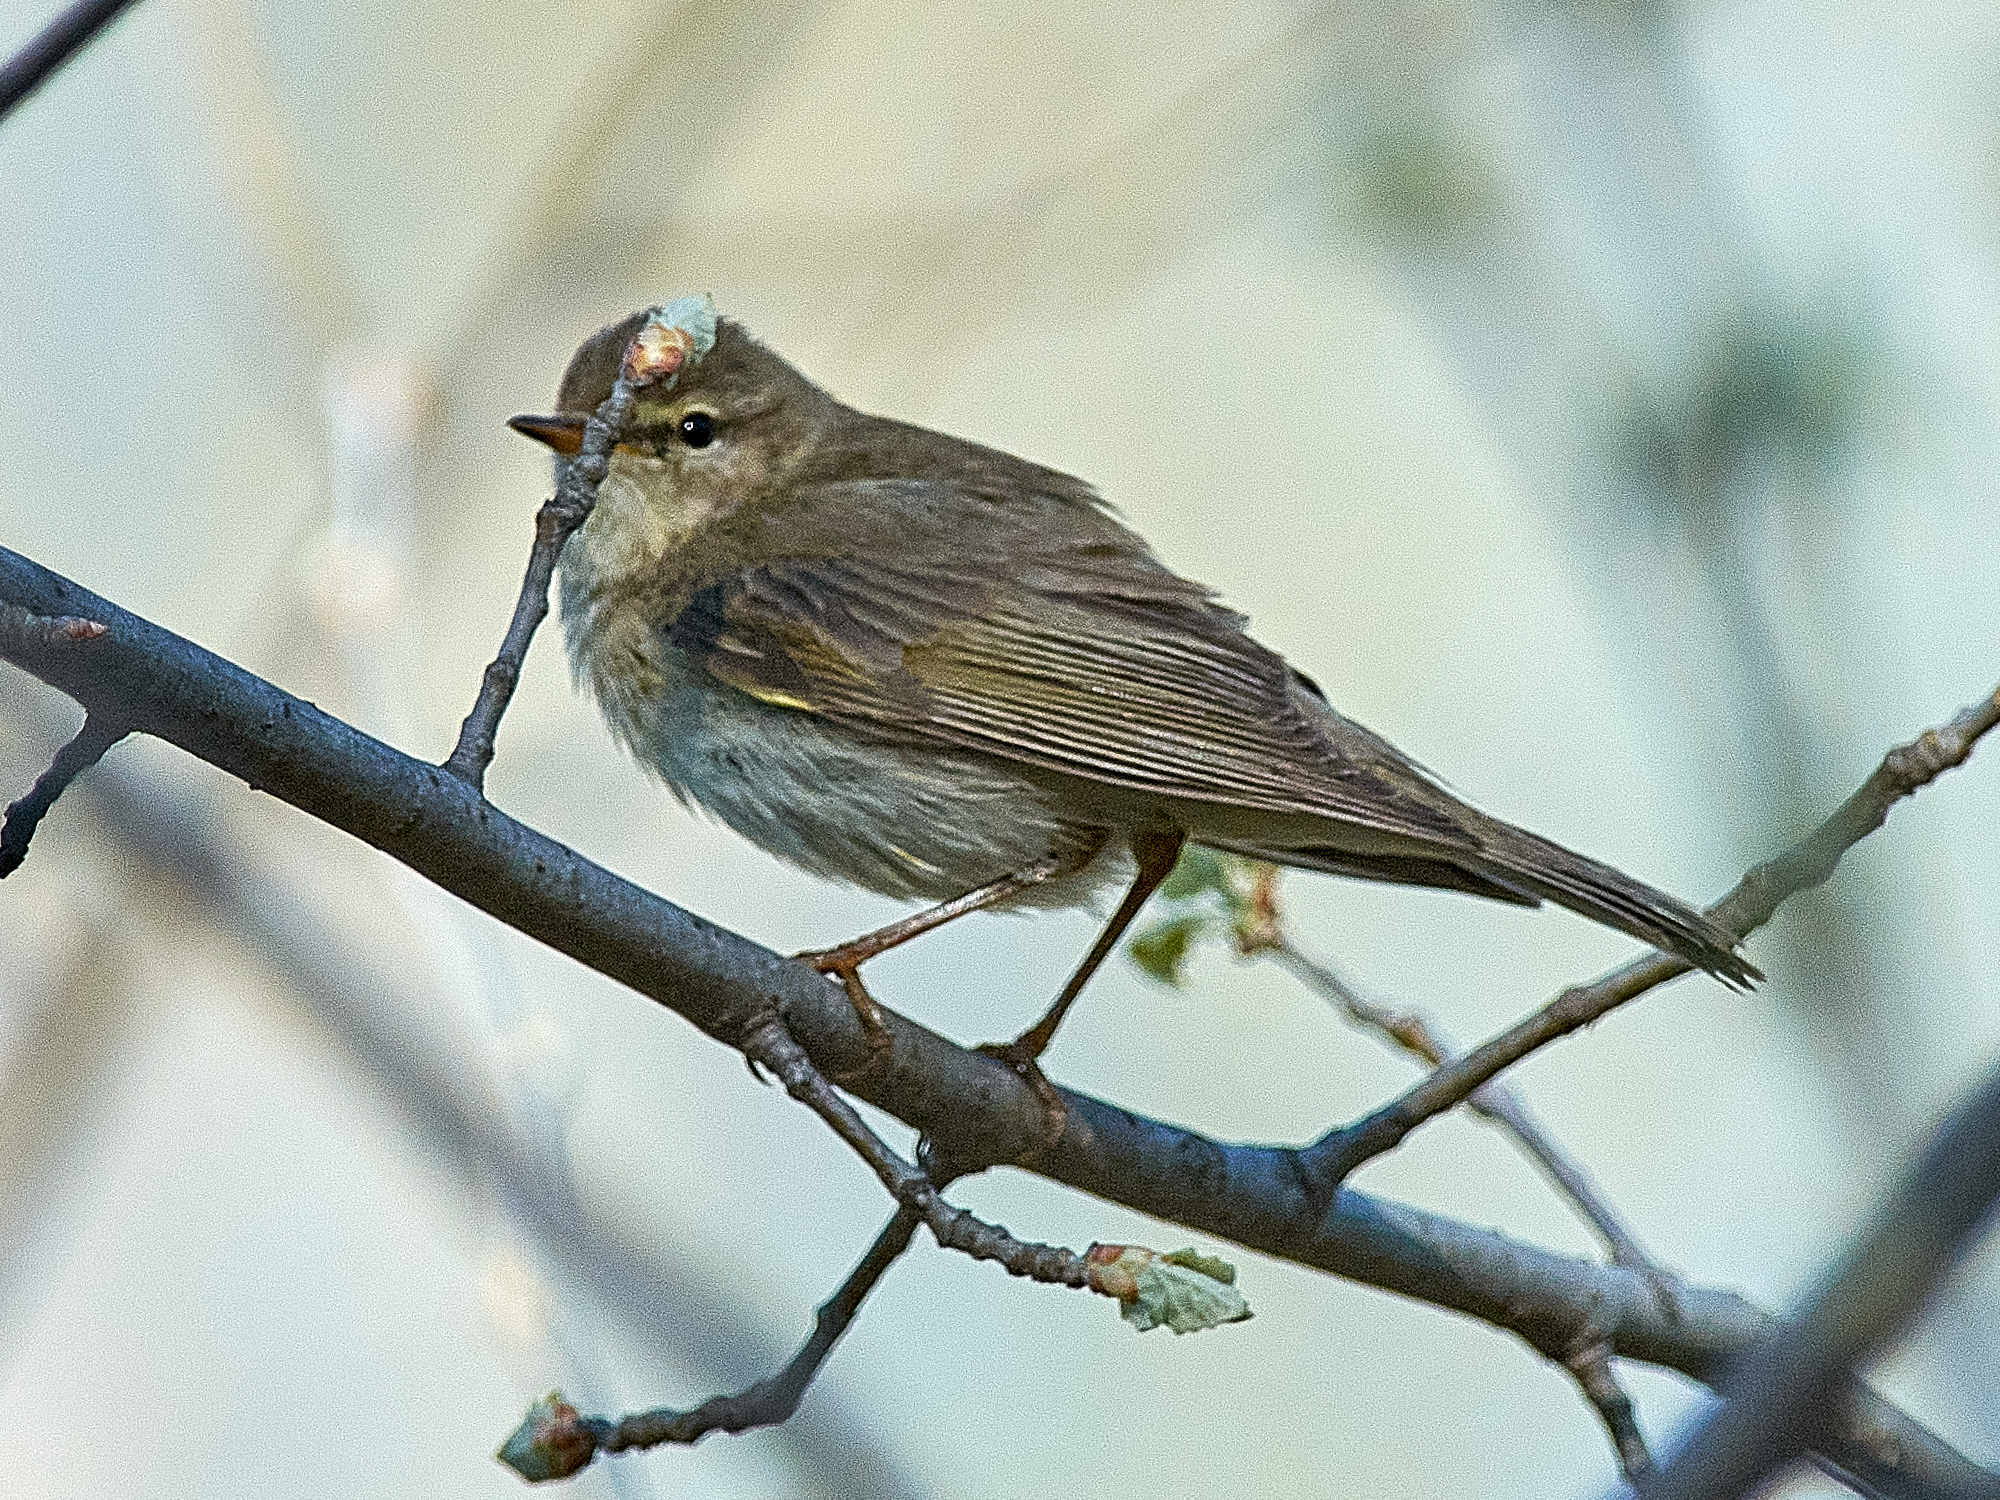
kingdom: Animalia
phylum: Chordata
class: Aves
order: Passeriformes
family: Phylloscopidae
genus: Phylloscopus
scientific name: Phylloscopus trochilus
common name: Willow warbler
